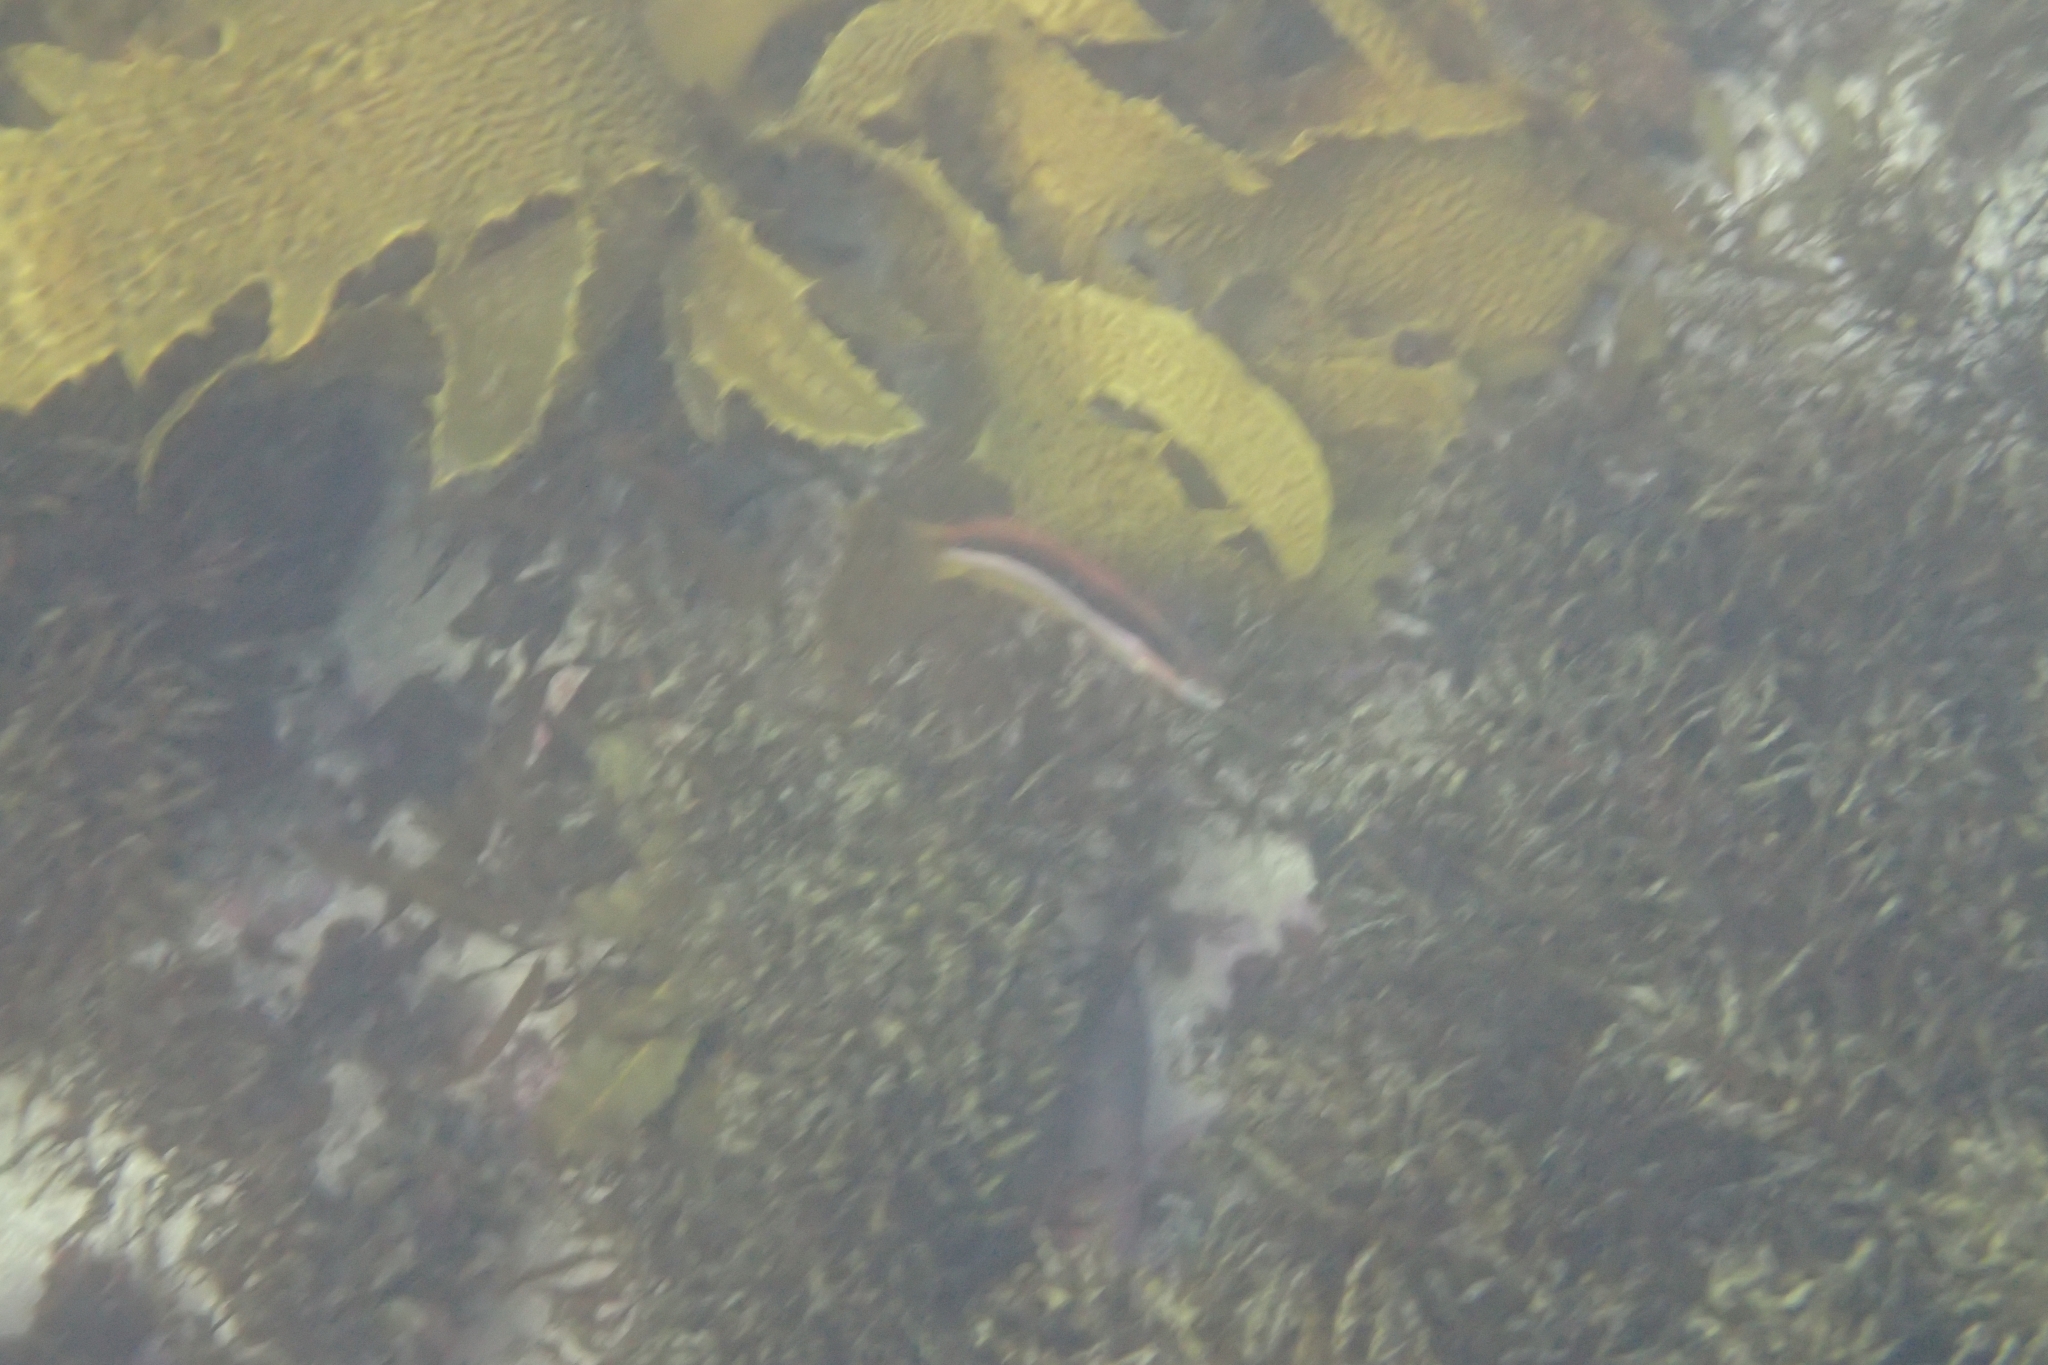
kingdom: Animalia
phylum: Chordata
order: Perciformes
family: Labridae
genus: Ophthalmolepis
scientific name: Ophthalmolepis lineolata
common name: Maori wrasse
